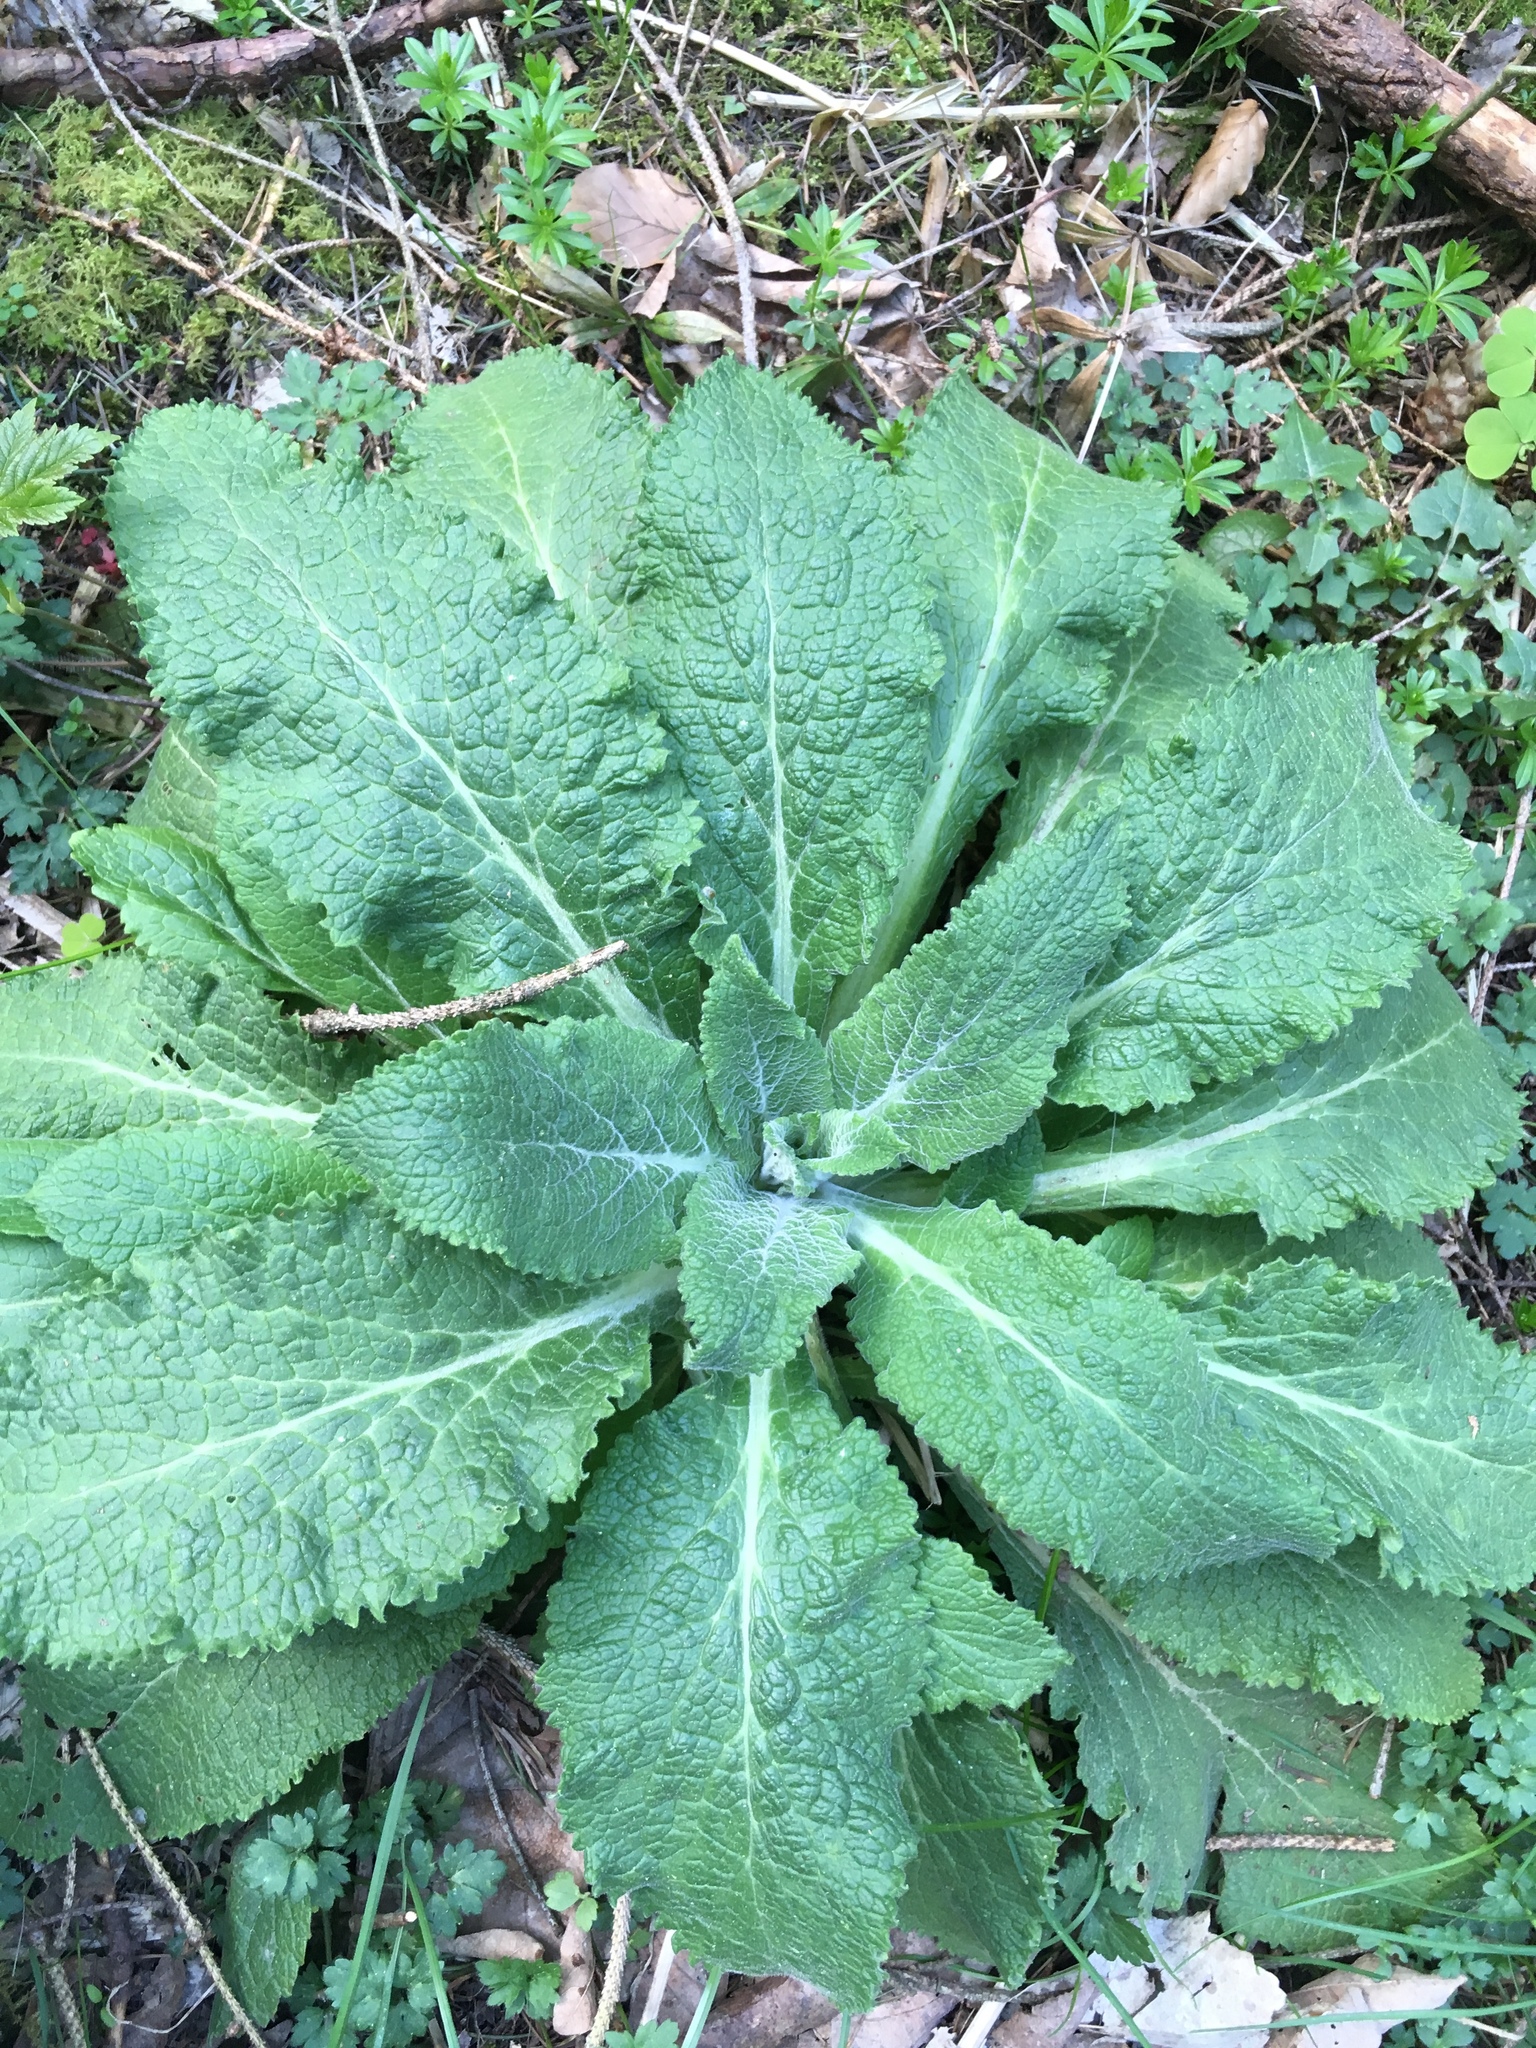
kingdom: Plantae
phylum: Tracheophyta
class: Magnoliopsida
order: Lamiales
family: Plantaginaceae
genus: Digitalis
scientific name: Digitalis purpurea
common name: Foxglove
